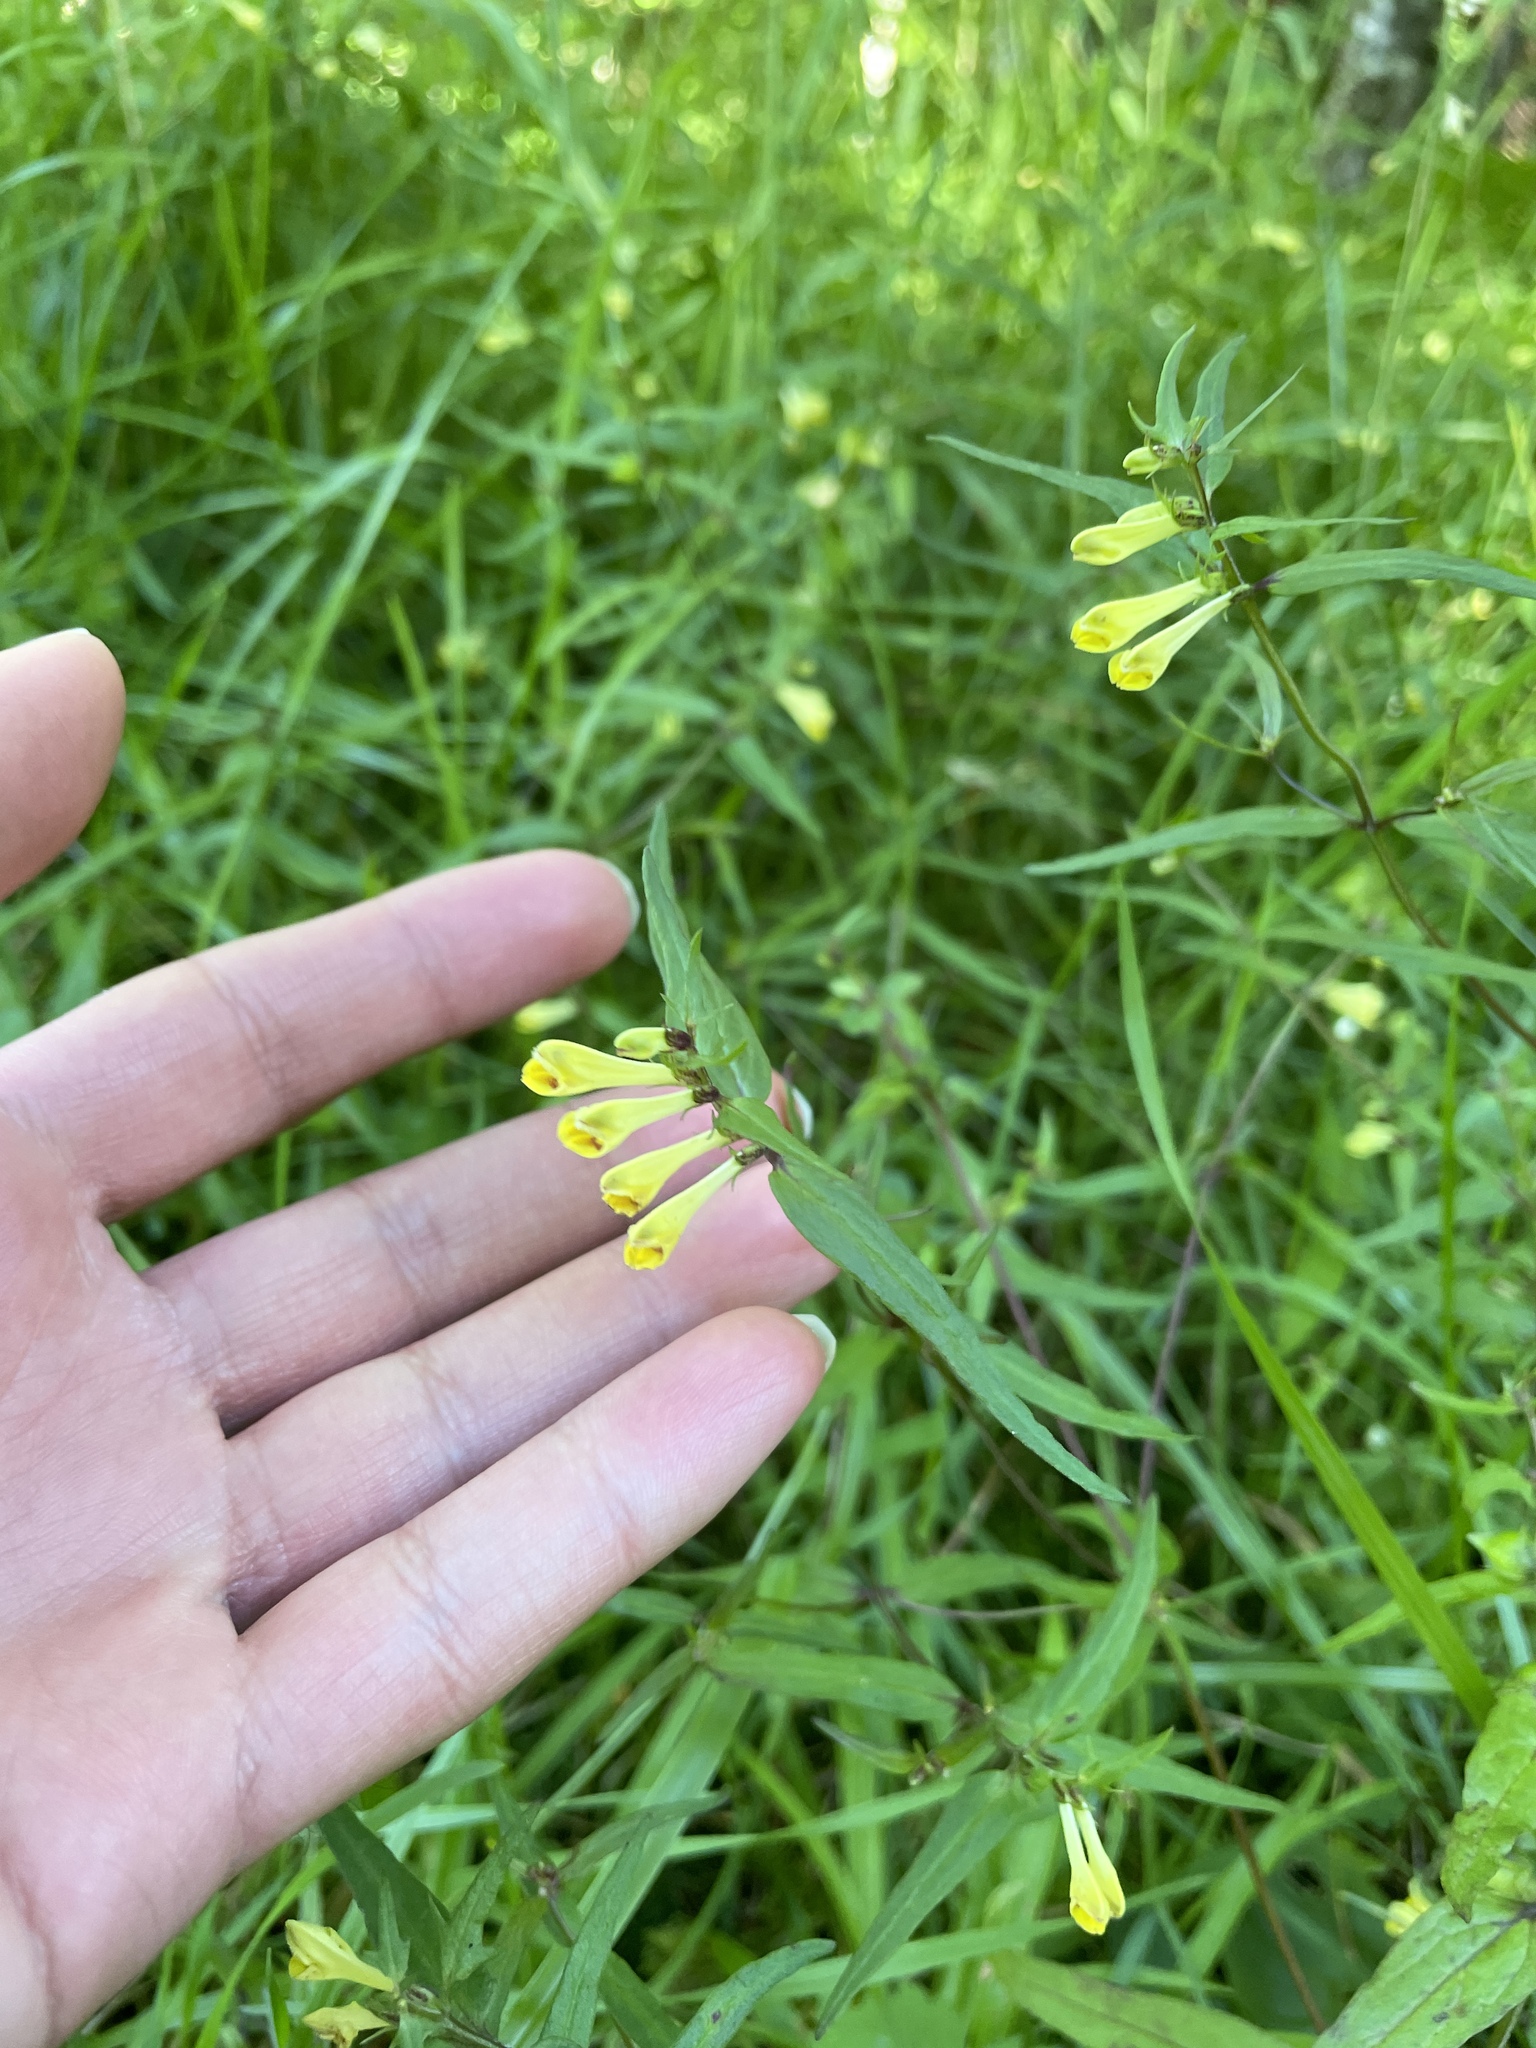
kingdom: Plantae
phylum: Tracheophyta
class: Magnoliopsida
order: Lamiales
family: Orobanchaceae
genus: Melampyrum
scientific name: Melampyrum pratense
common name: Common cow-wheat
